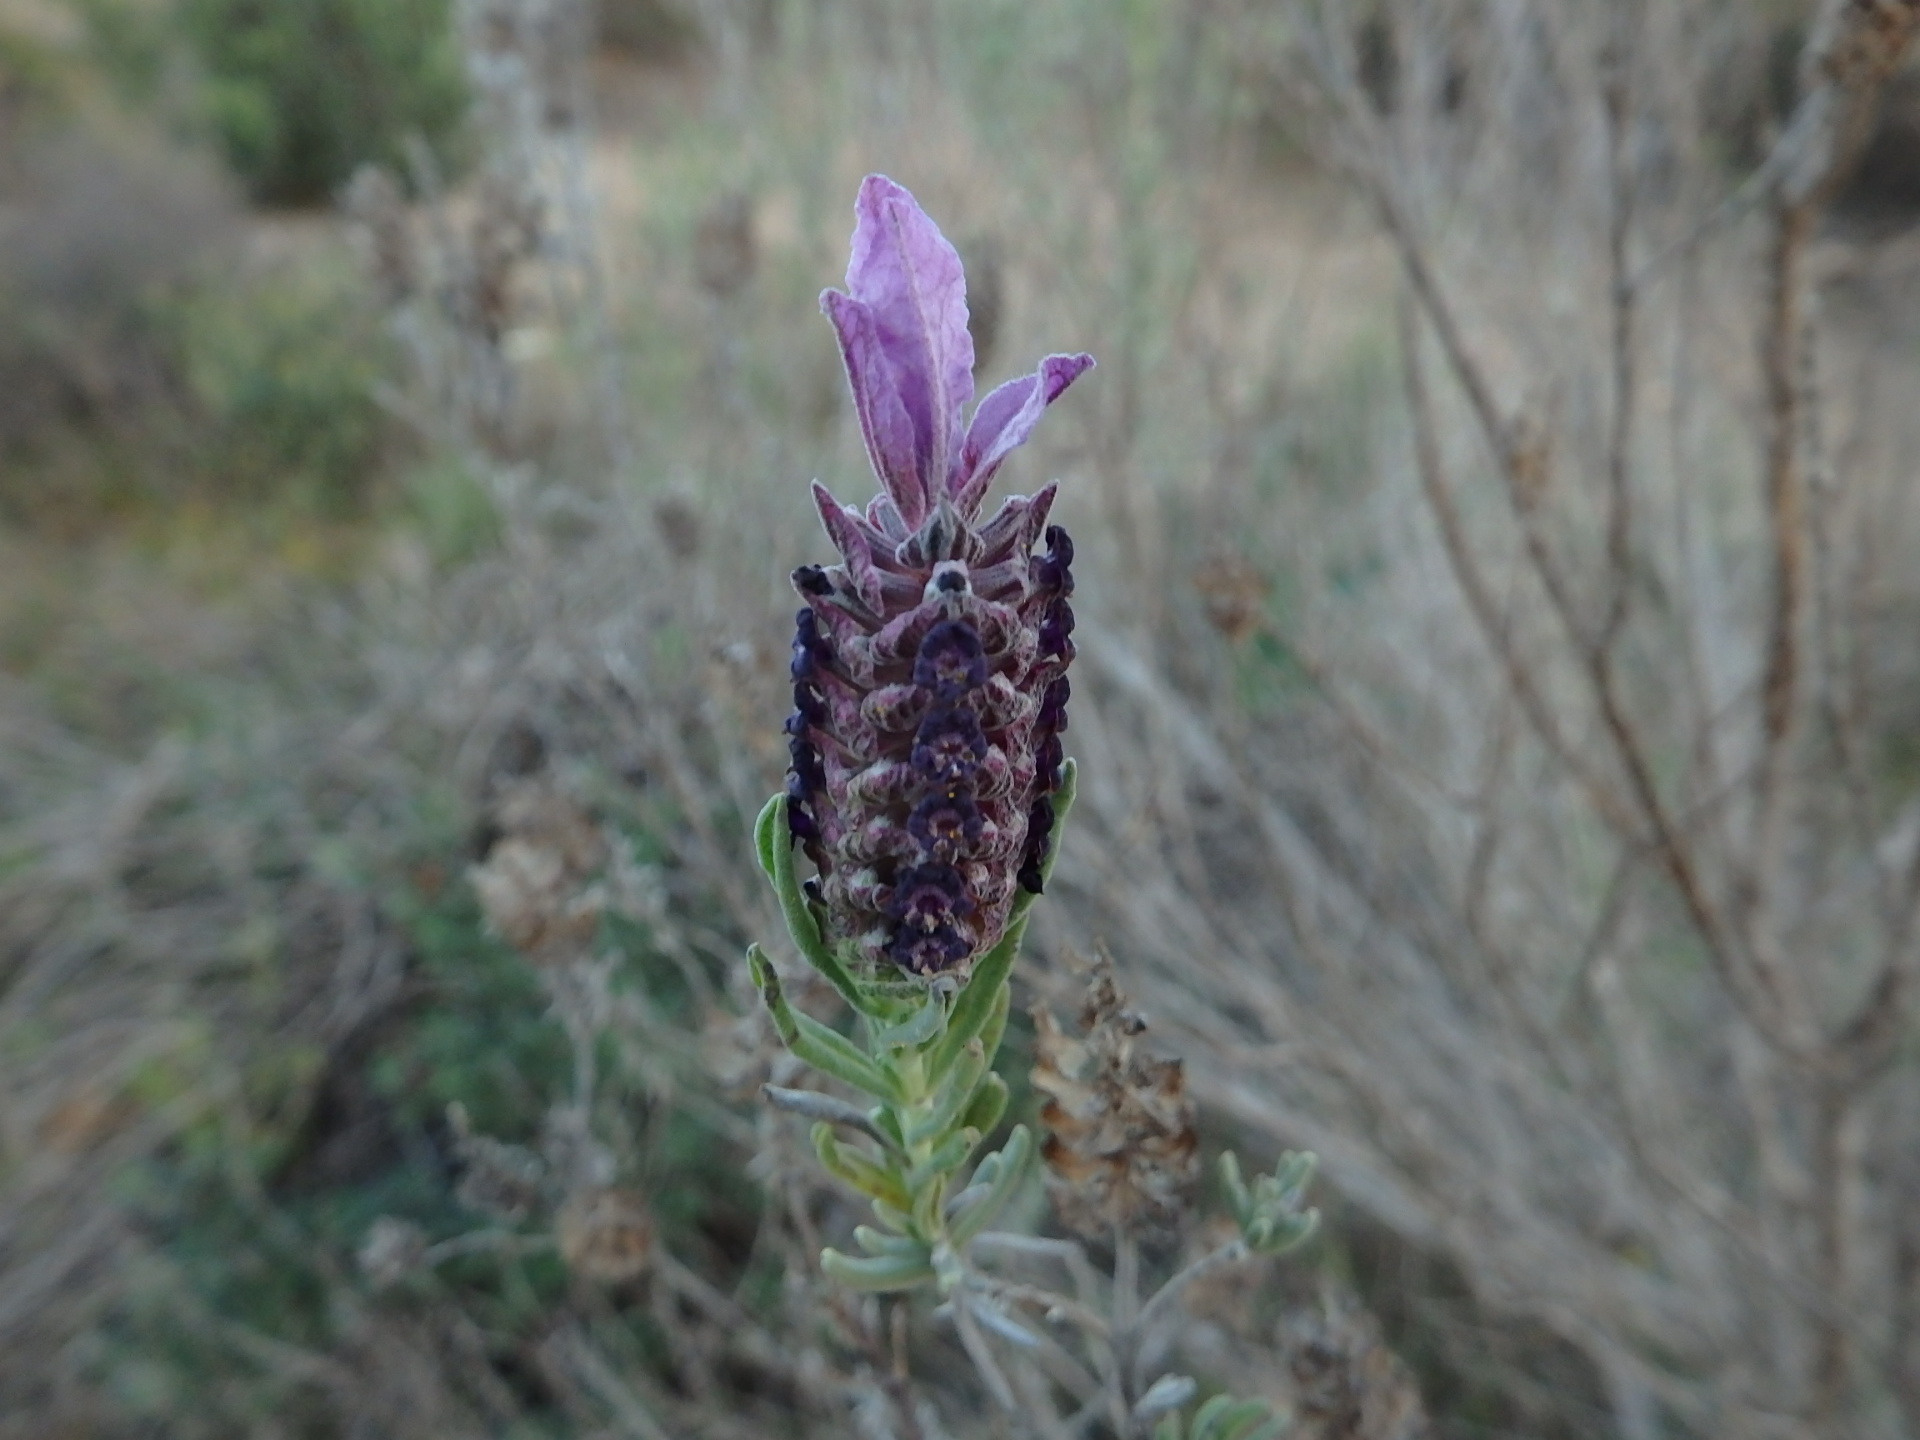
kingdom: Plantae
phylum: Tracheophyta
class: Magnoliopsida
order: Lamiales
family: Lamiaceae
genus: Lavandula
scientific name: Lavandula stoechas
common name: French lavender
